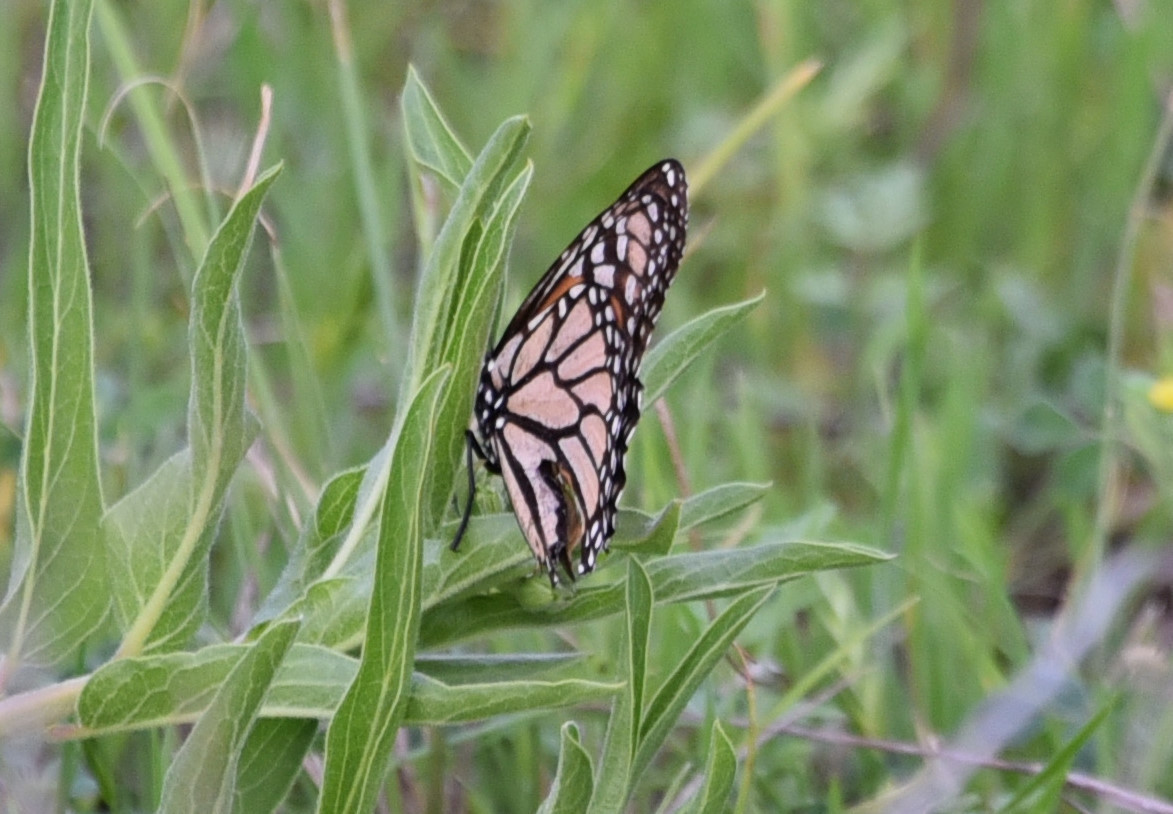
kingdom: Animalia
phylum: Arthropoda
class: Insecta
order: Lepidoptera
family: Nymphalidae
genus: Danaus
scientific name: Danaus plexippus
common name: Monarch
